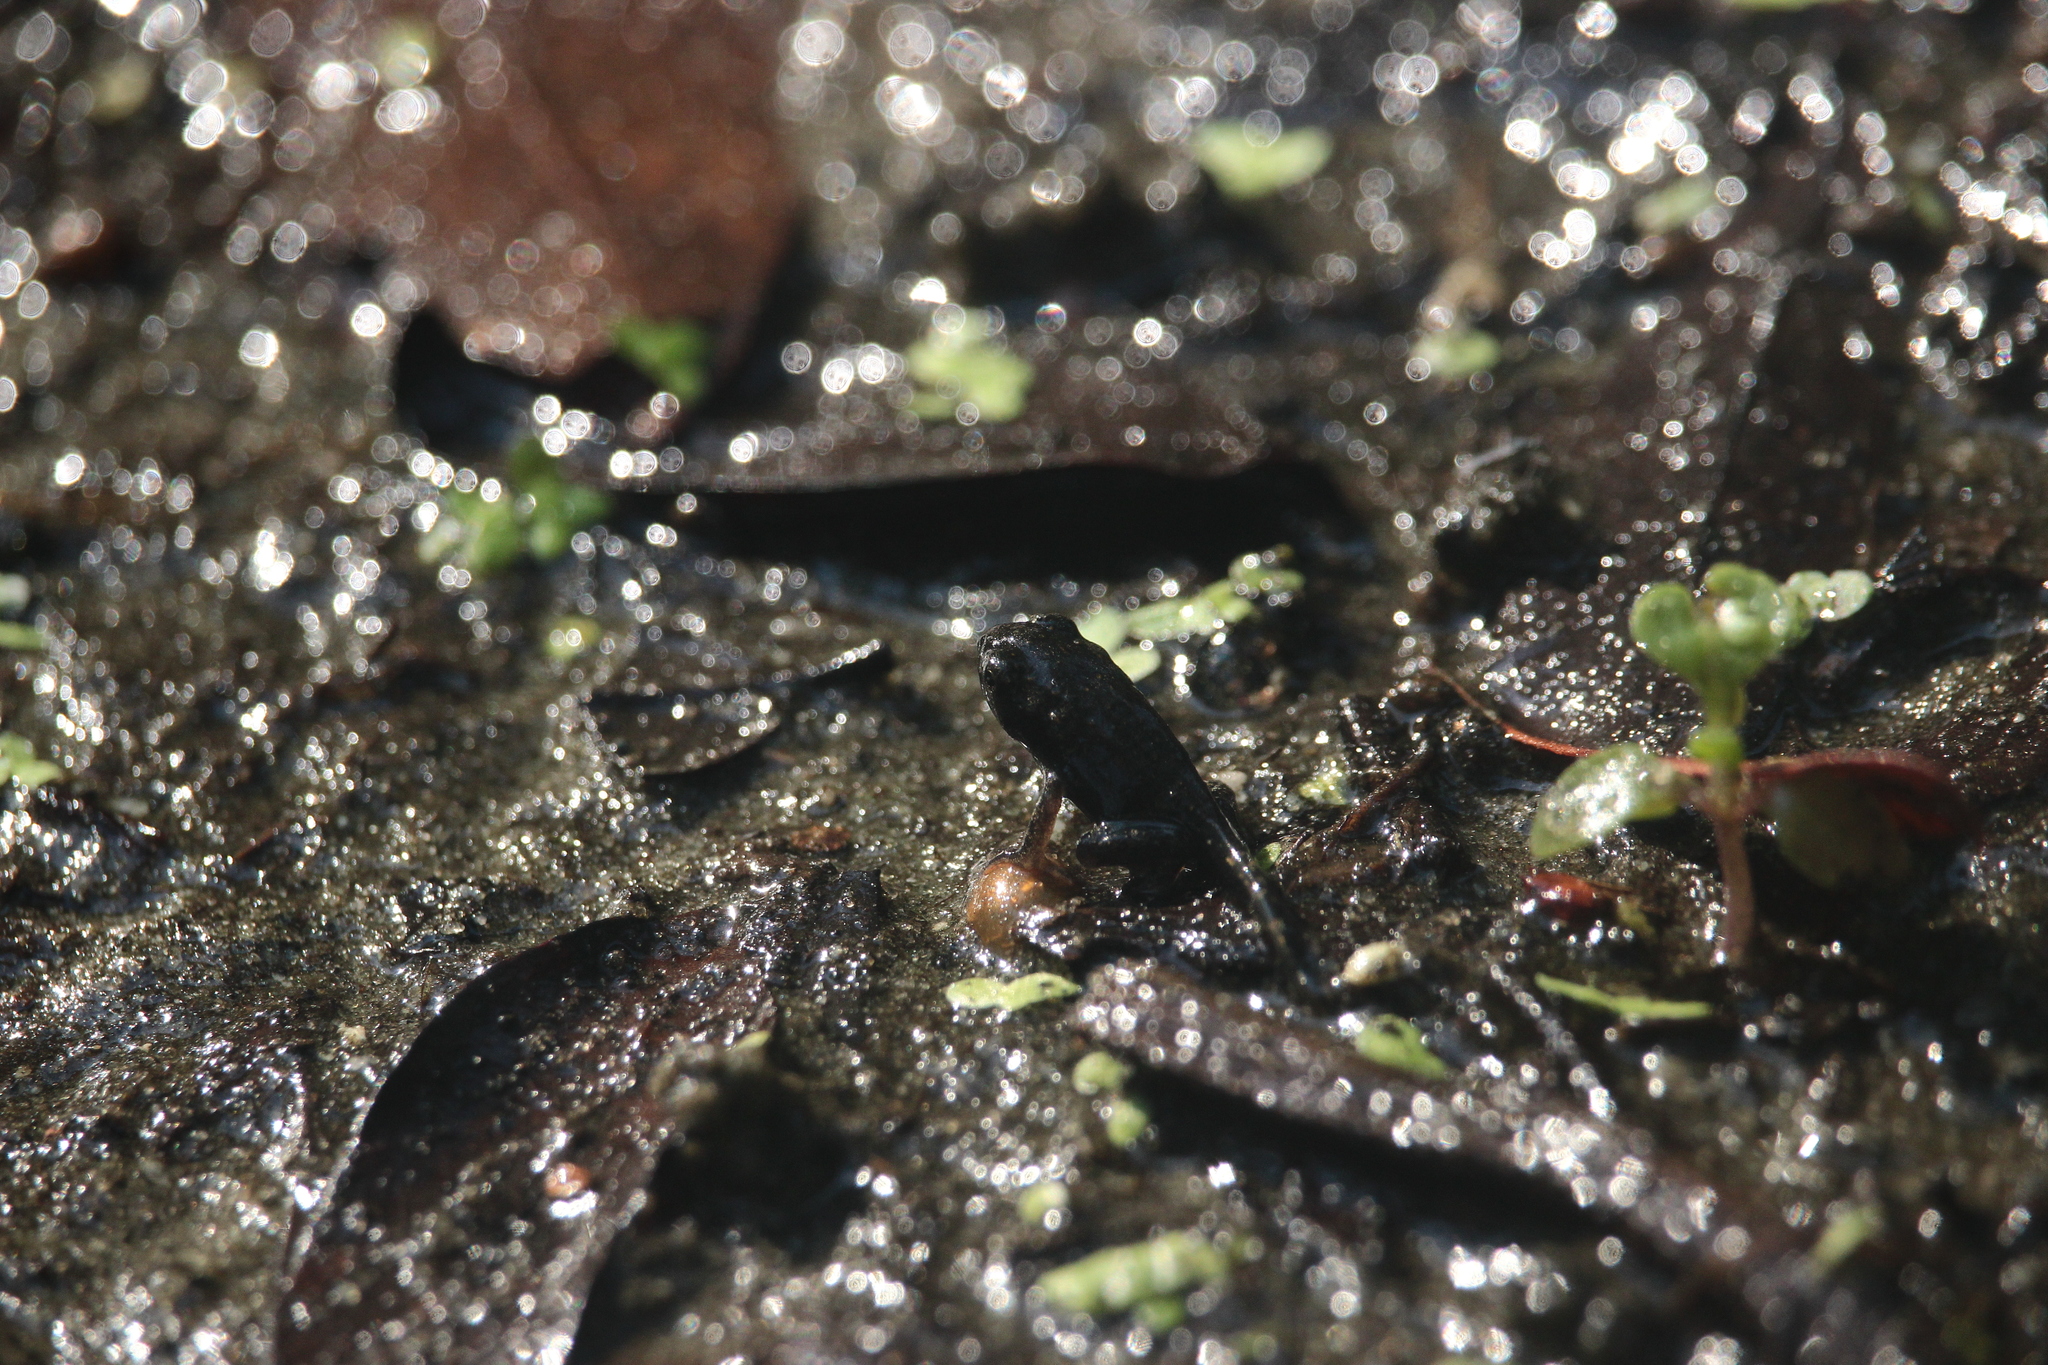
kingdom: Animalia
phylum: Chordata
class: Amphibia
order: Anura
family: Bufonidae
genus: Anaxyrus
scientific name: Anaxyrus terrestris
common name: Southern toad
